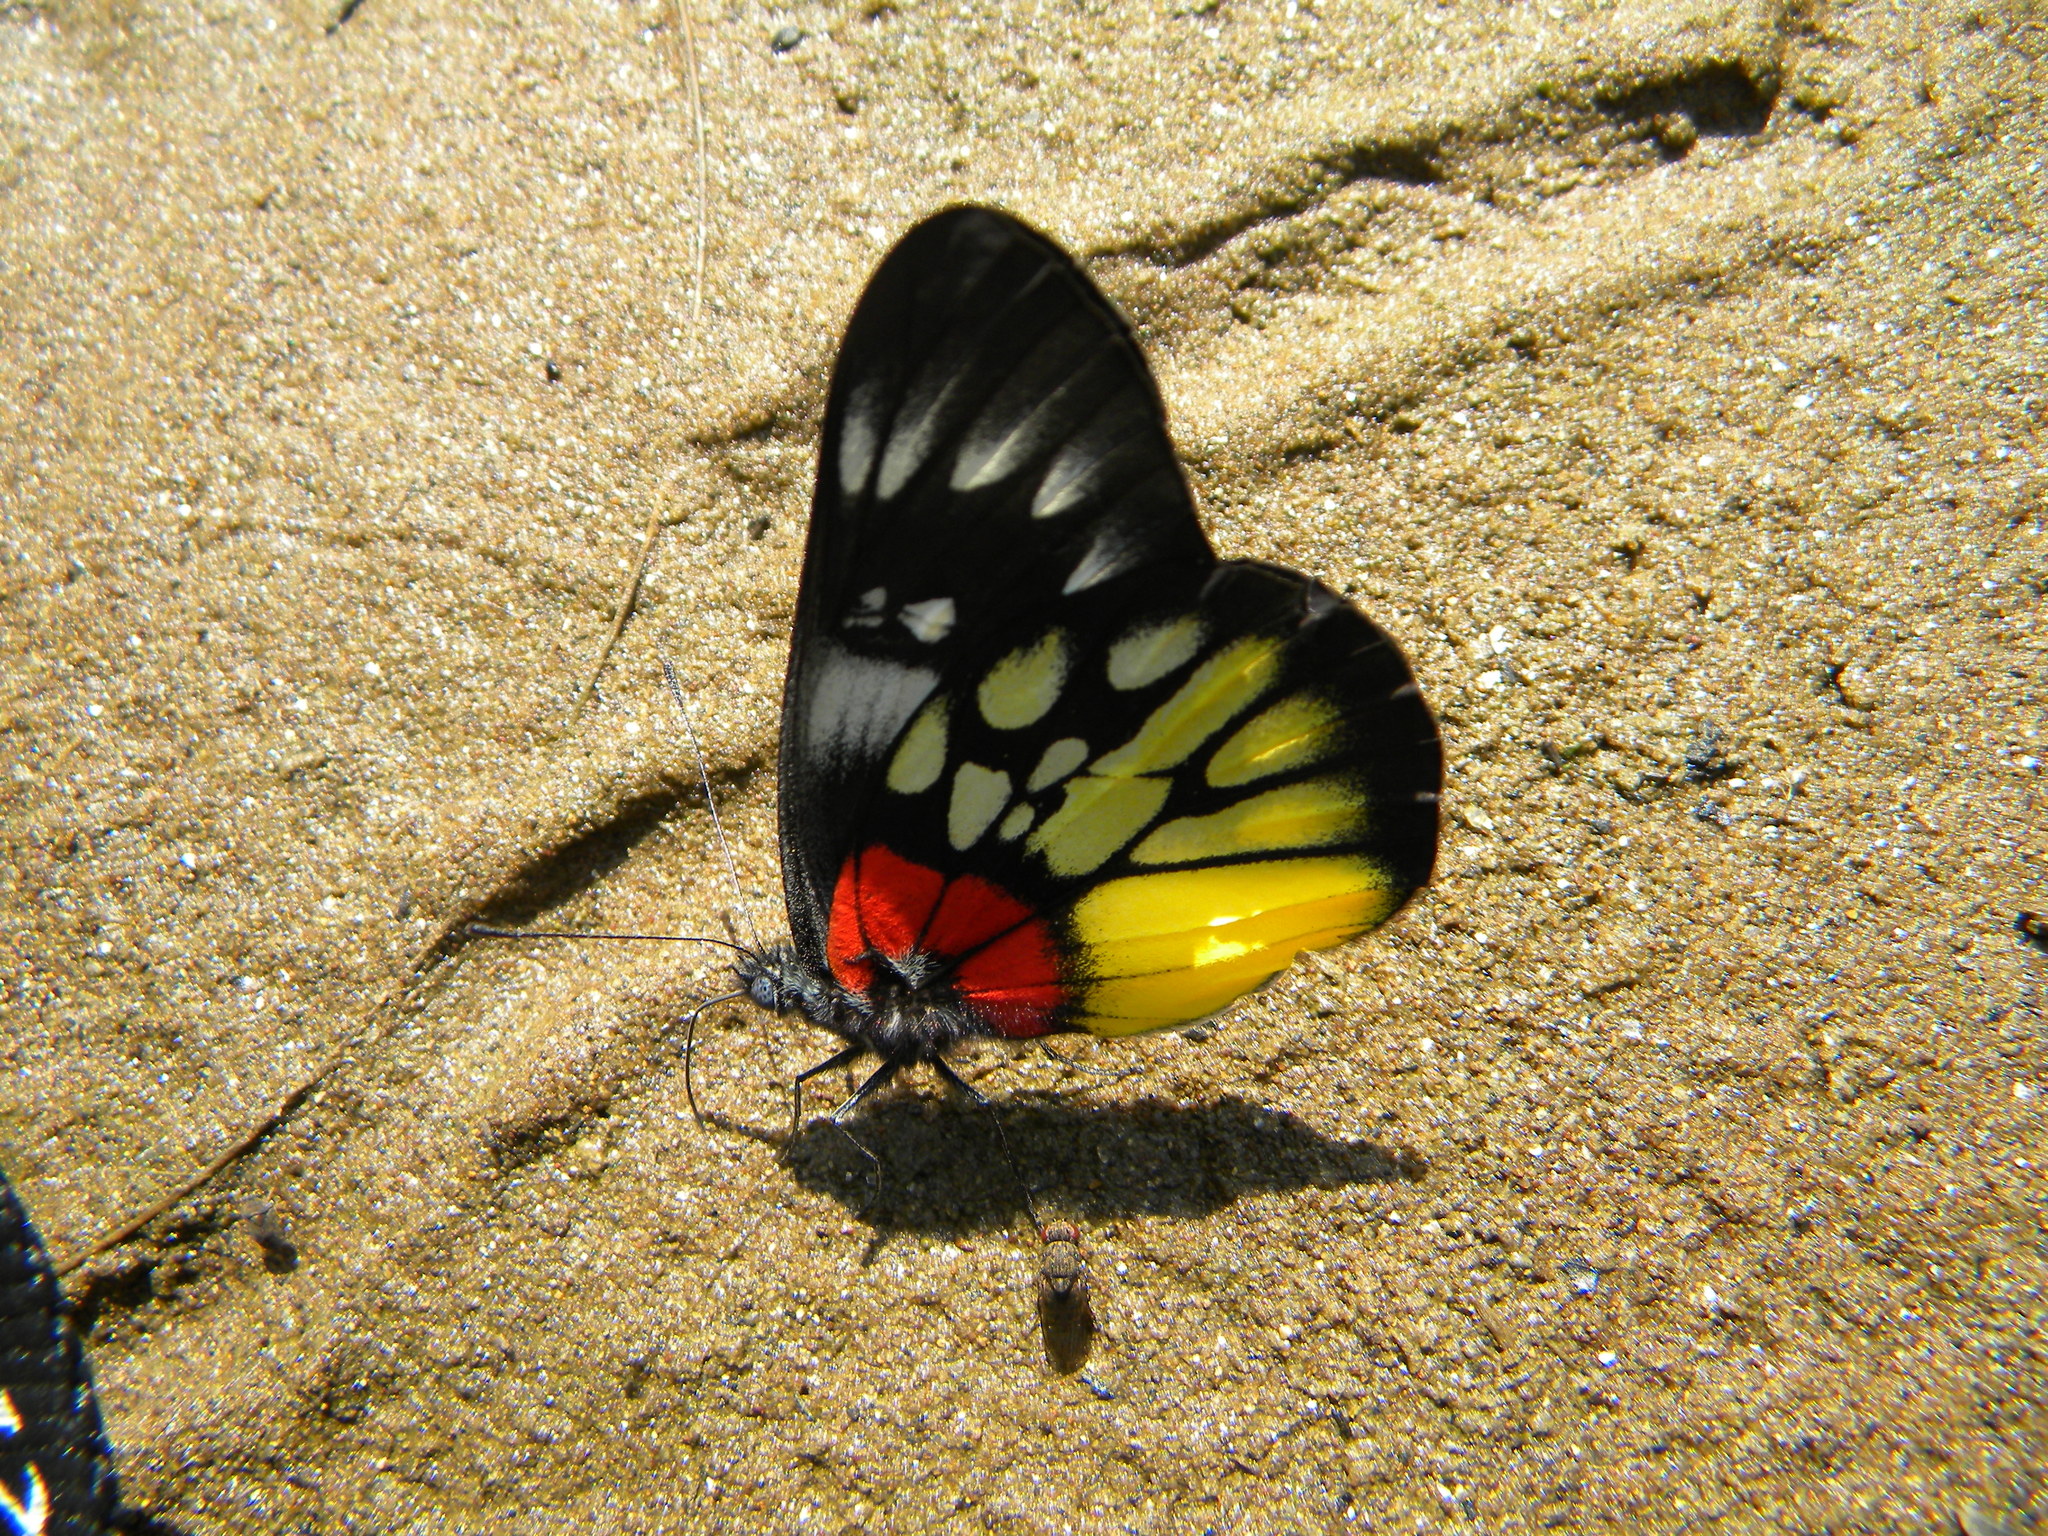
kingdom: Animalia
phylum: Arthropoda
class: Insecta
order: Lepidoptera
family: Pieridae
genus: Delias
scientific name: Delias pasithoe
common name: Red-base jezebel
